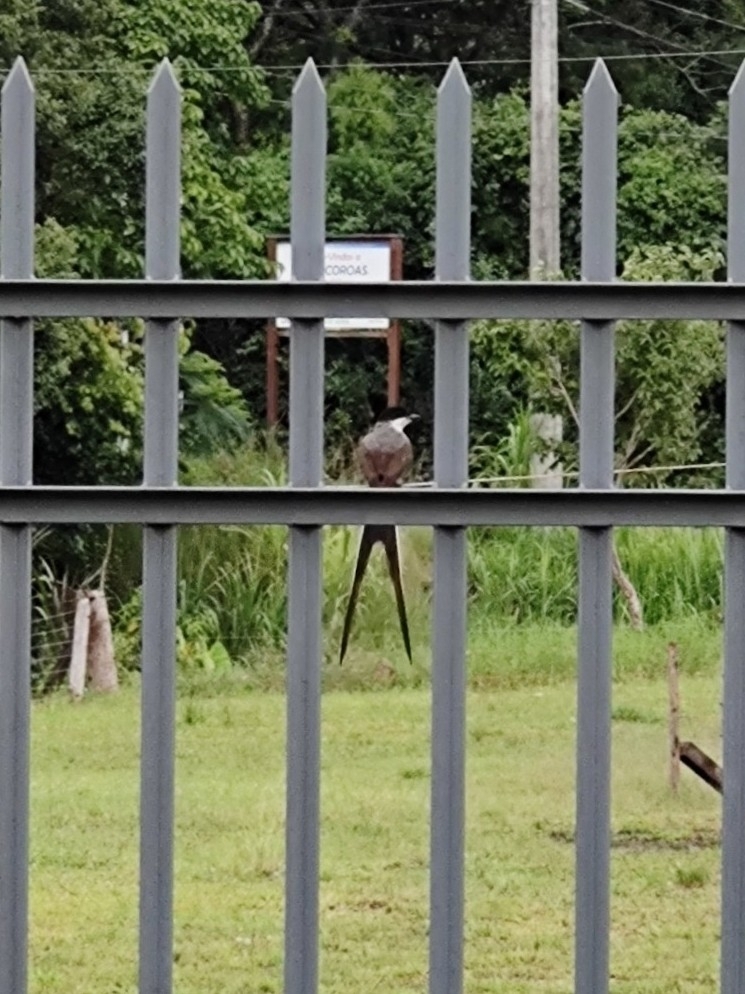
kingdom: Animalia
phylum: Chordata
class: Aves
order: Passeriformes
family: Tyrannidae
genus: Tyrannus
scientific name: Tyrannus savana
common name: Fork-tailed flycatcher
